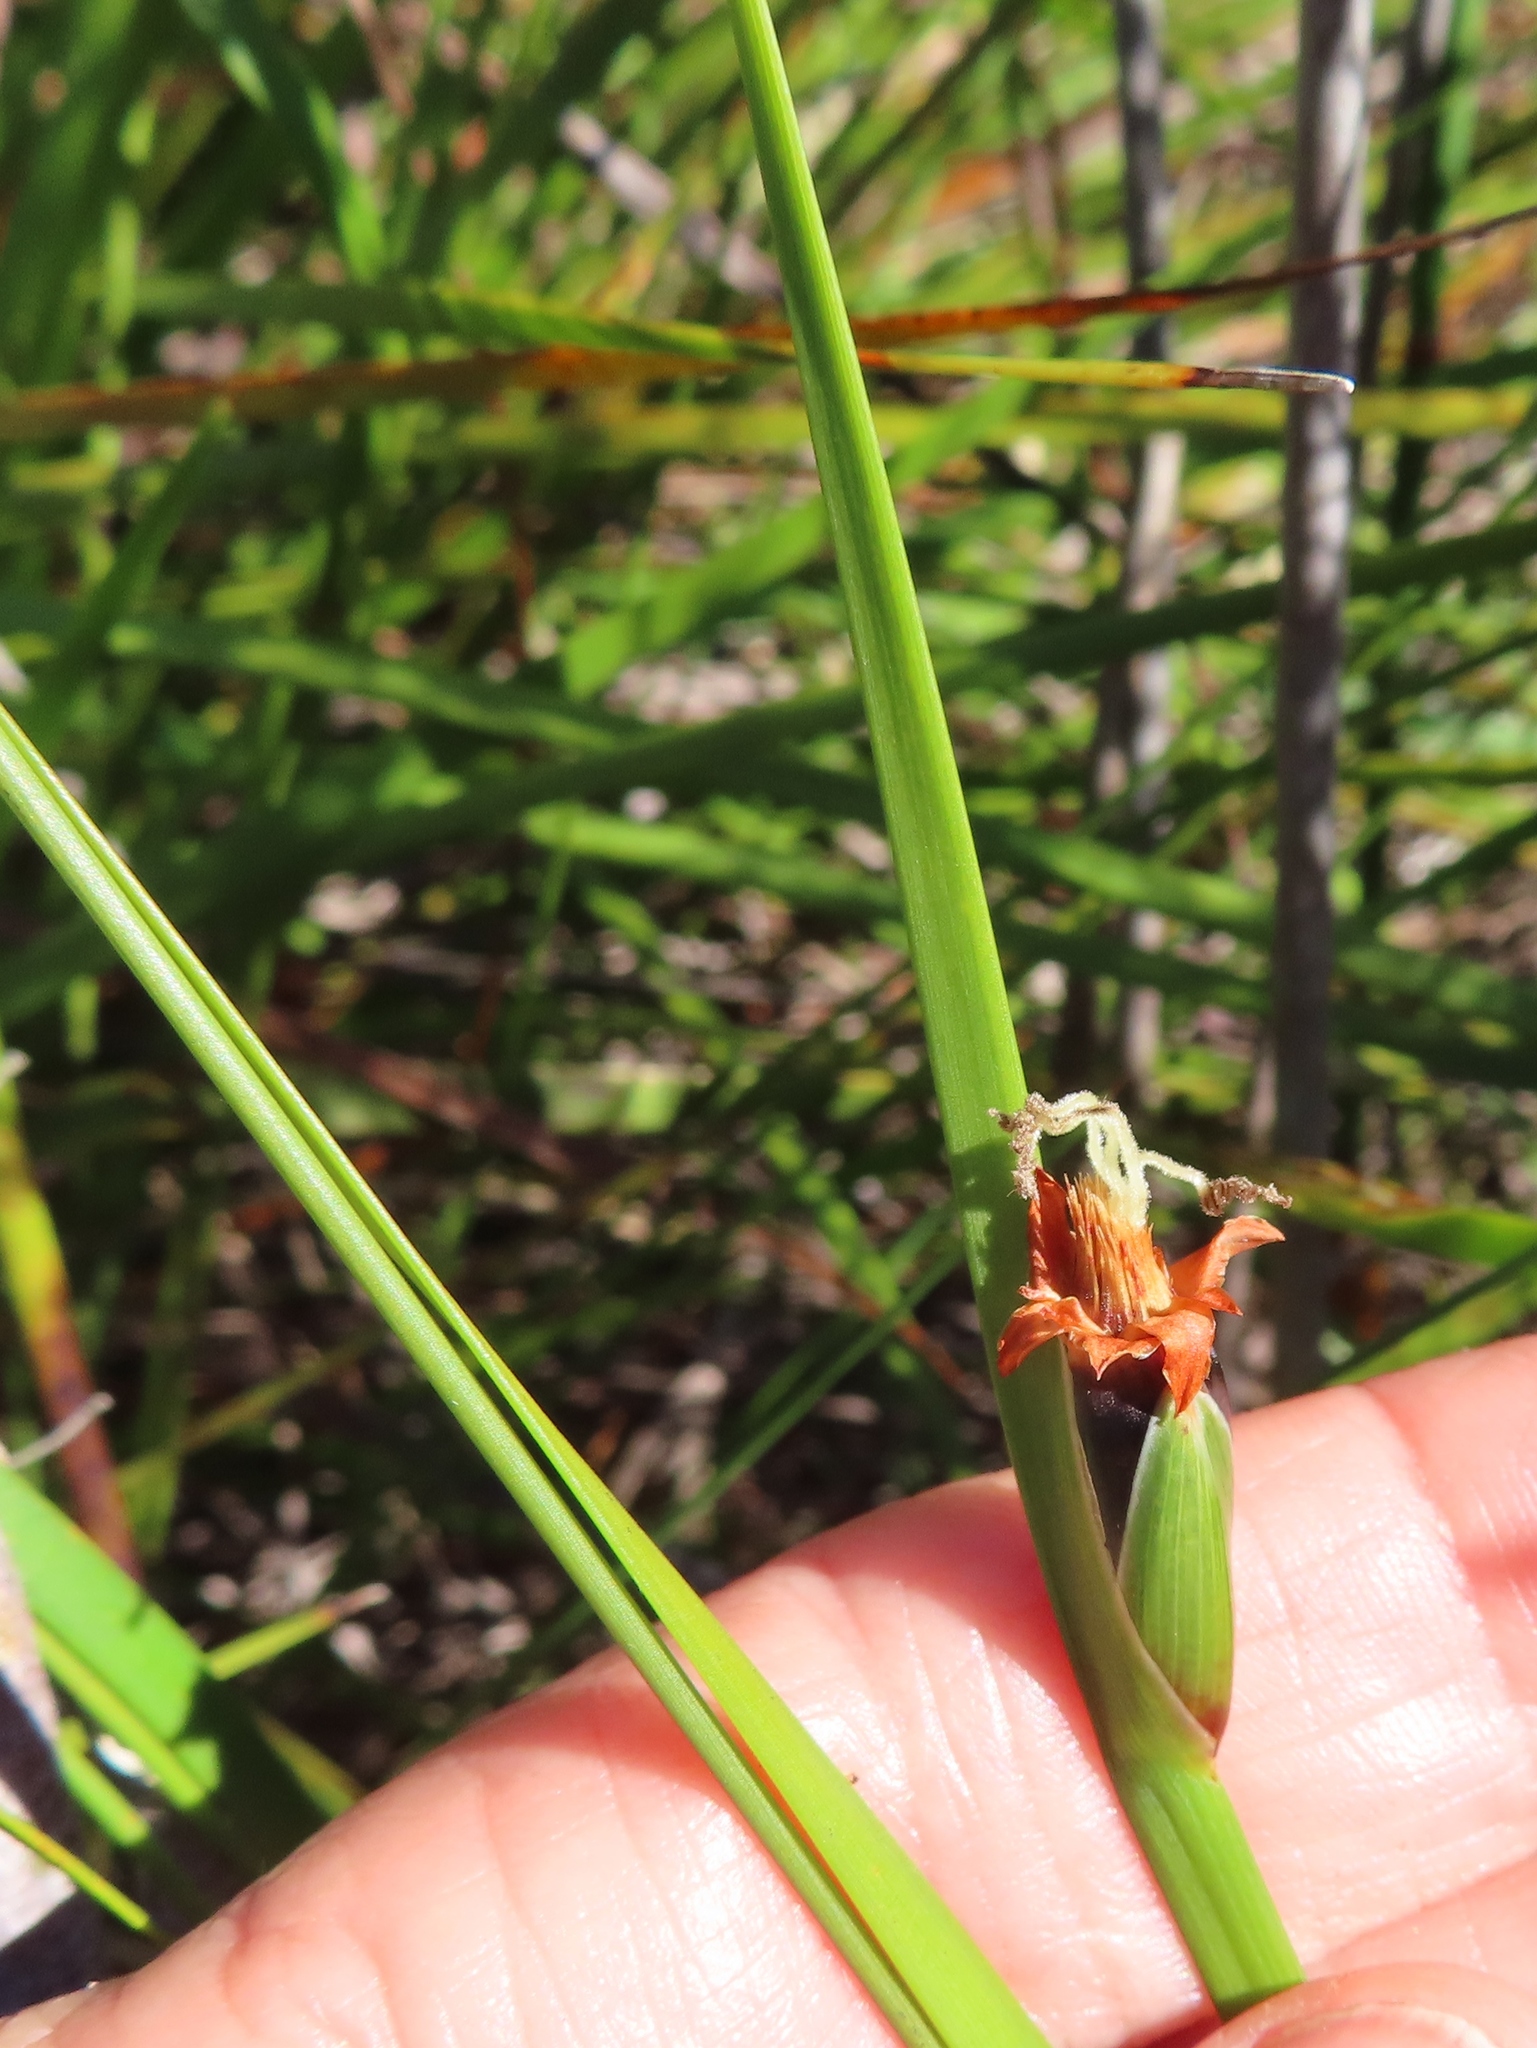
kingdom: Plantae
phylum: Tracheophyta
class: Liliopsida
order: Poales
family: Cyperaceae
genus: Chrysitrix
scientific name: Chrysitrix capensis
